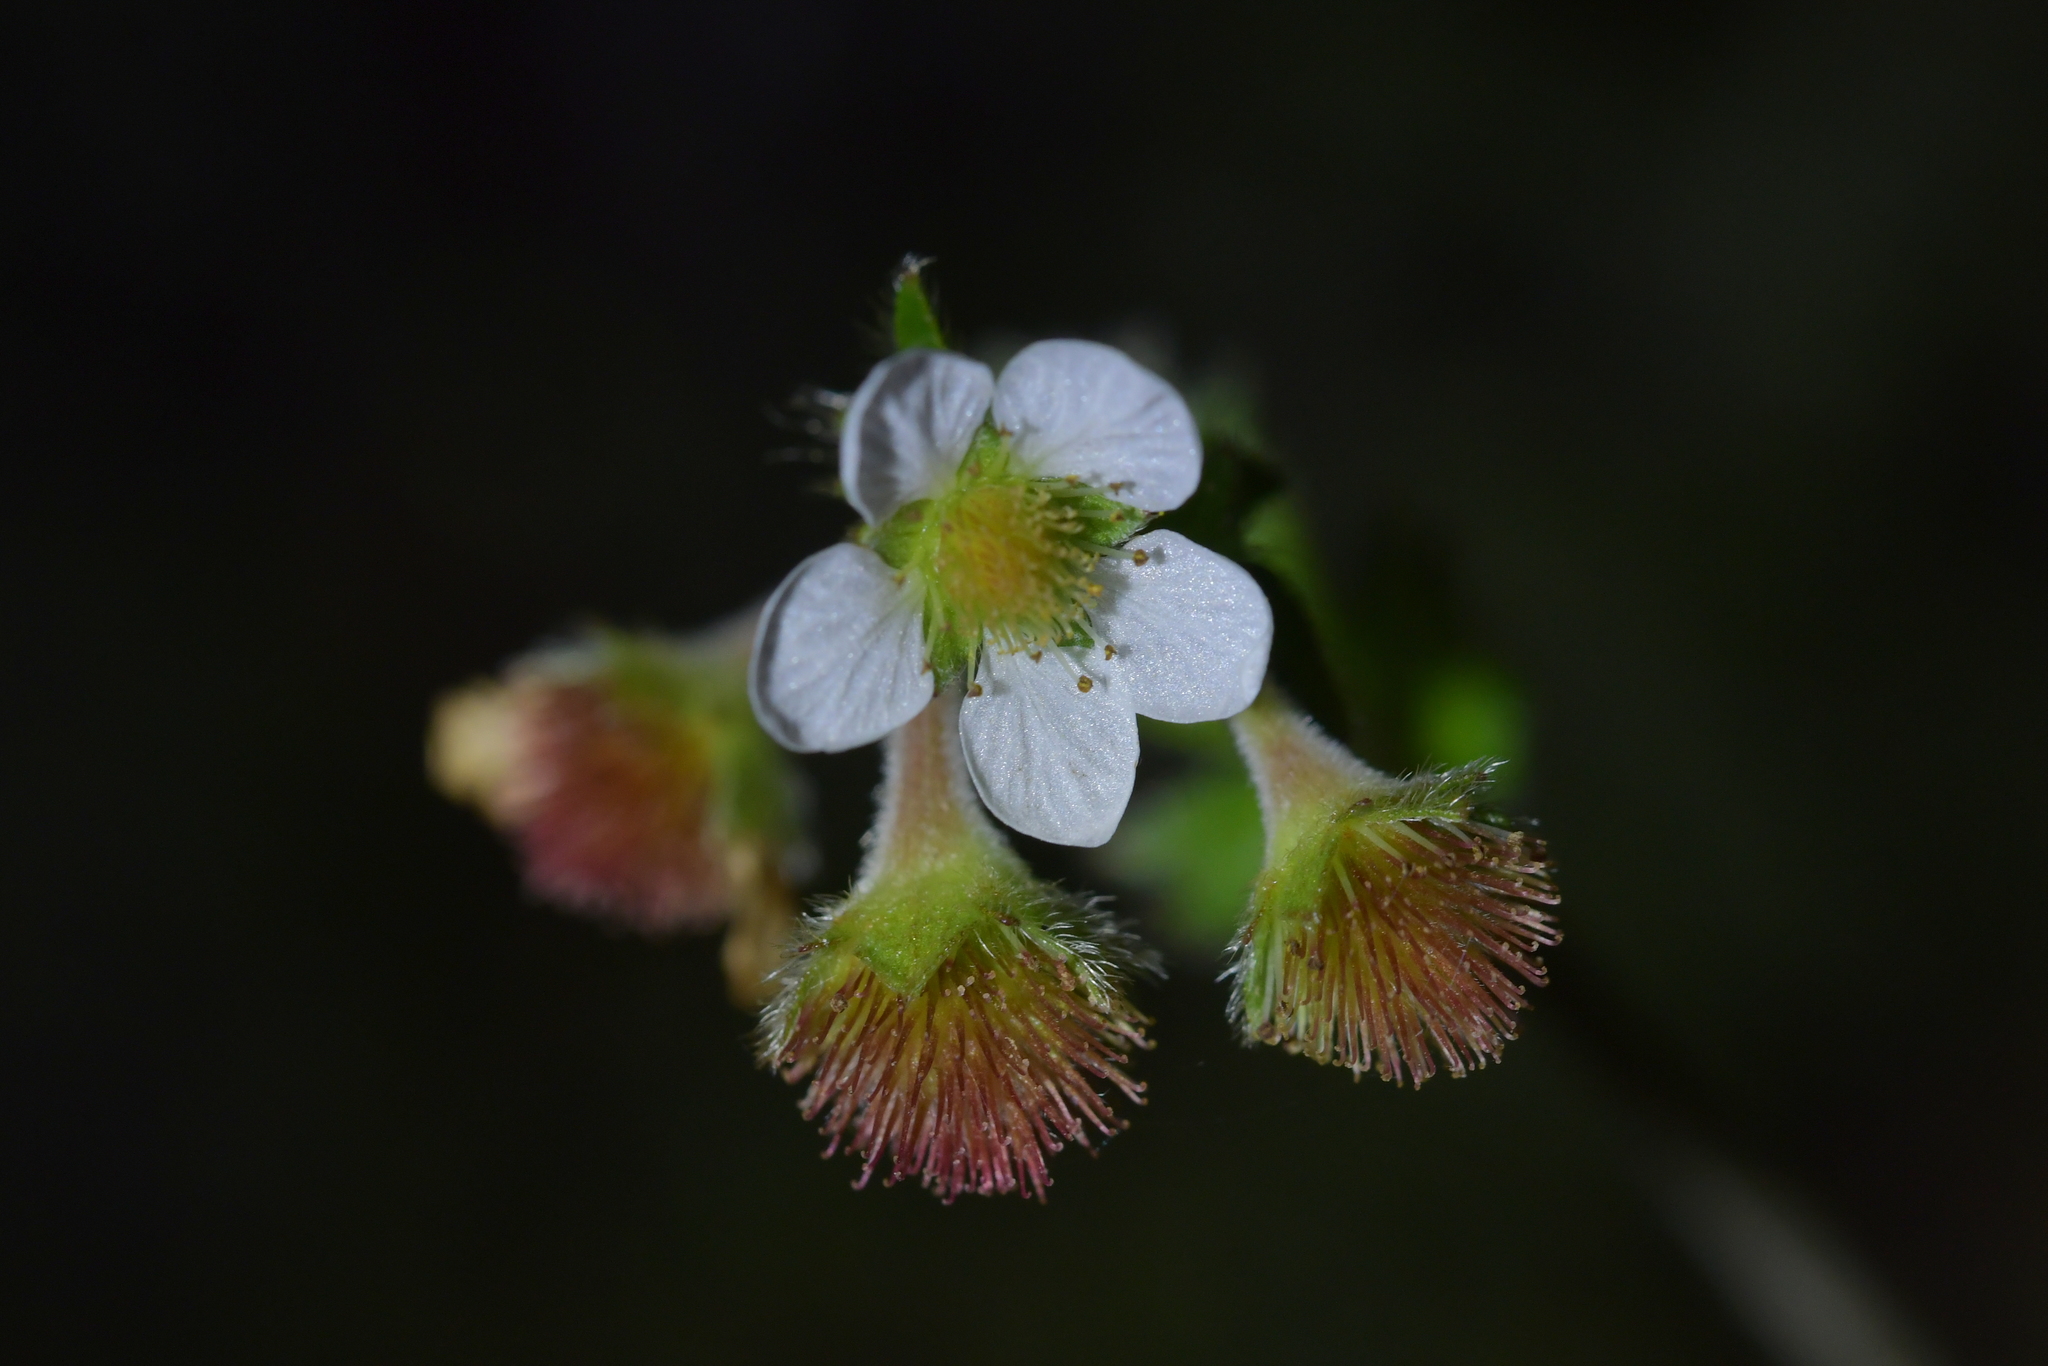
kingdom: Plantae
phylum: Tracheophyta
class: Magnoliopsida
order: Rosales
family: Rosaceae
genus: Geum
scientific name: Geum cockaynei
